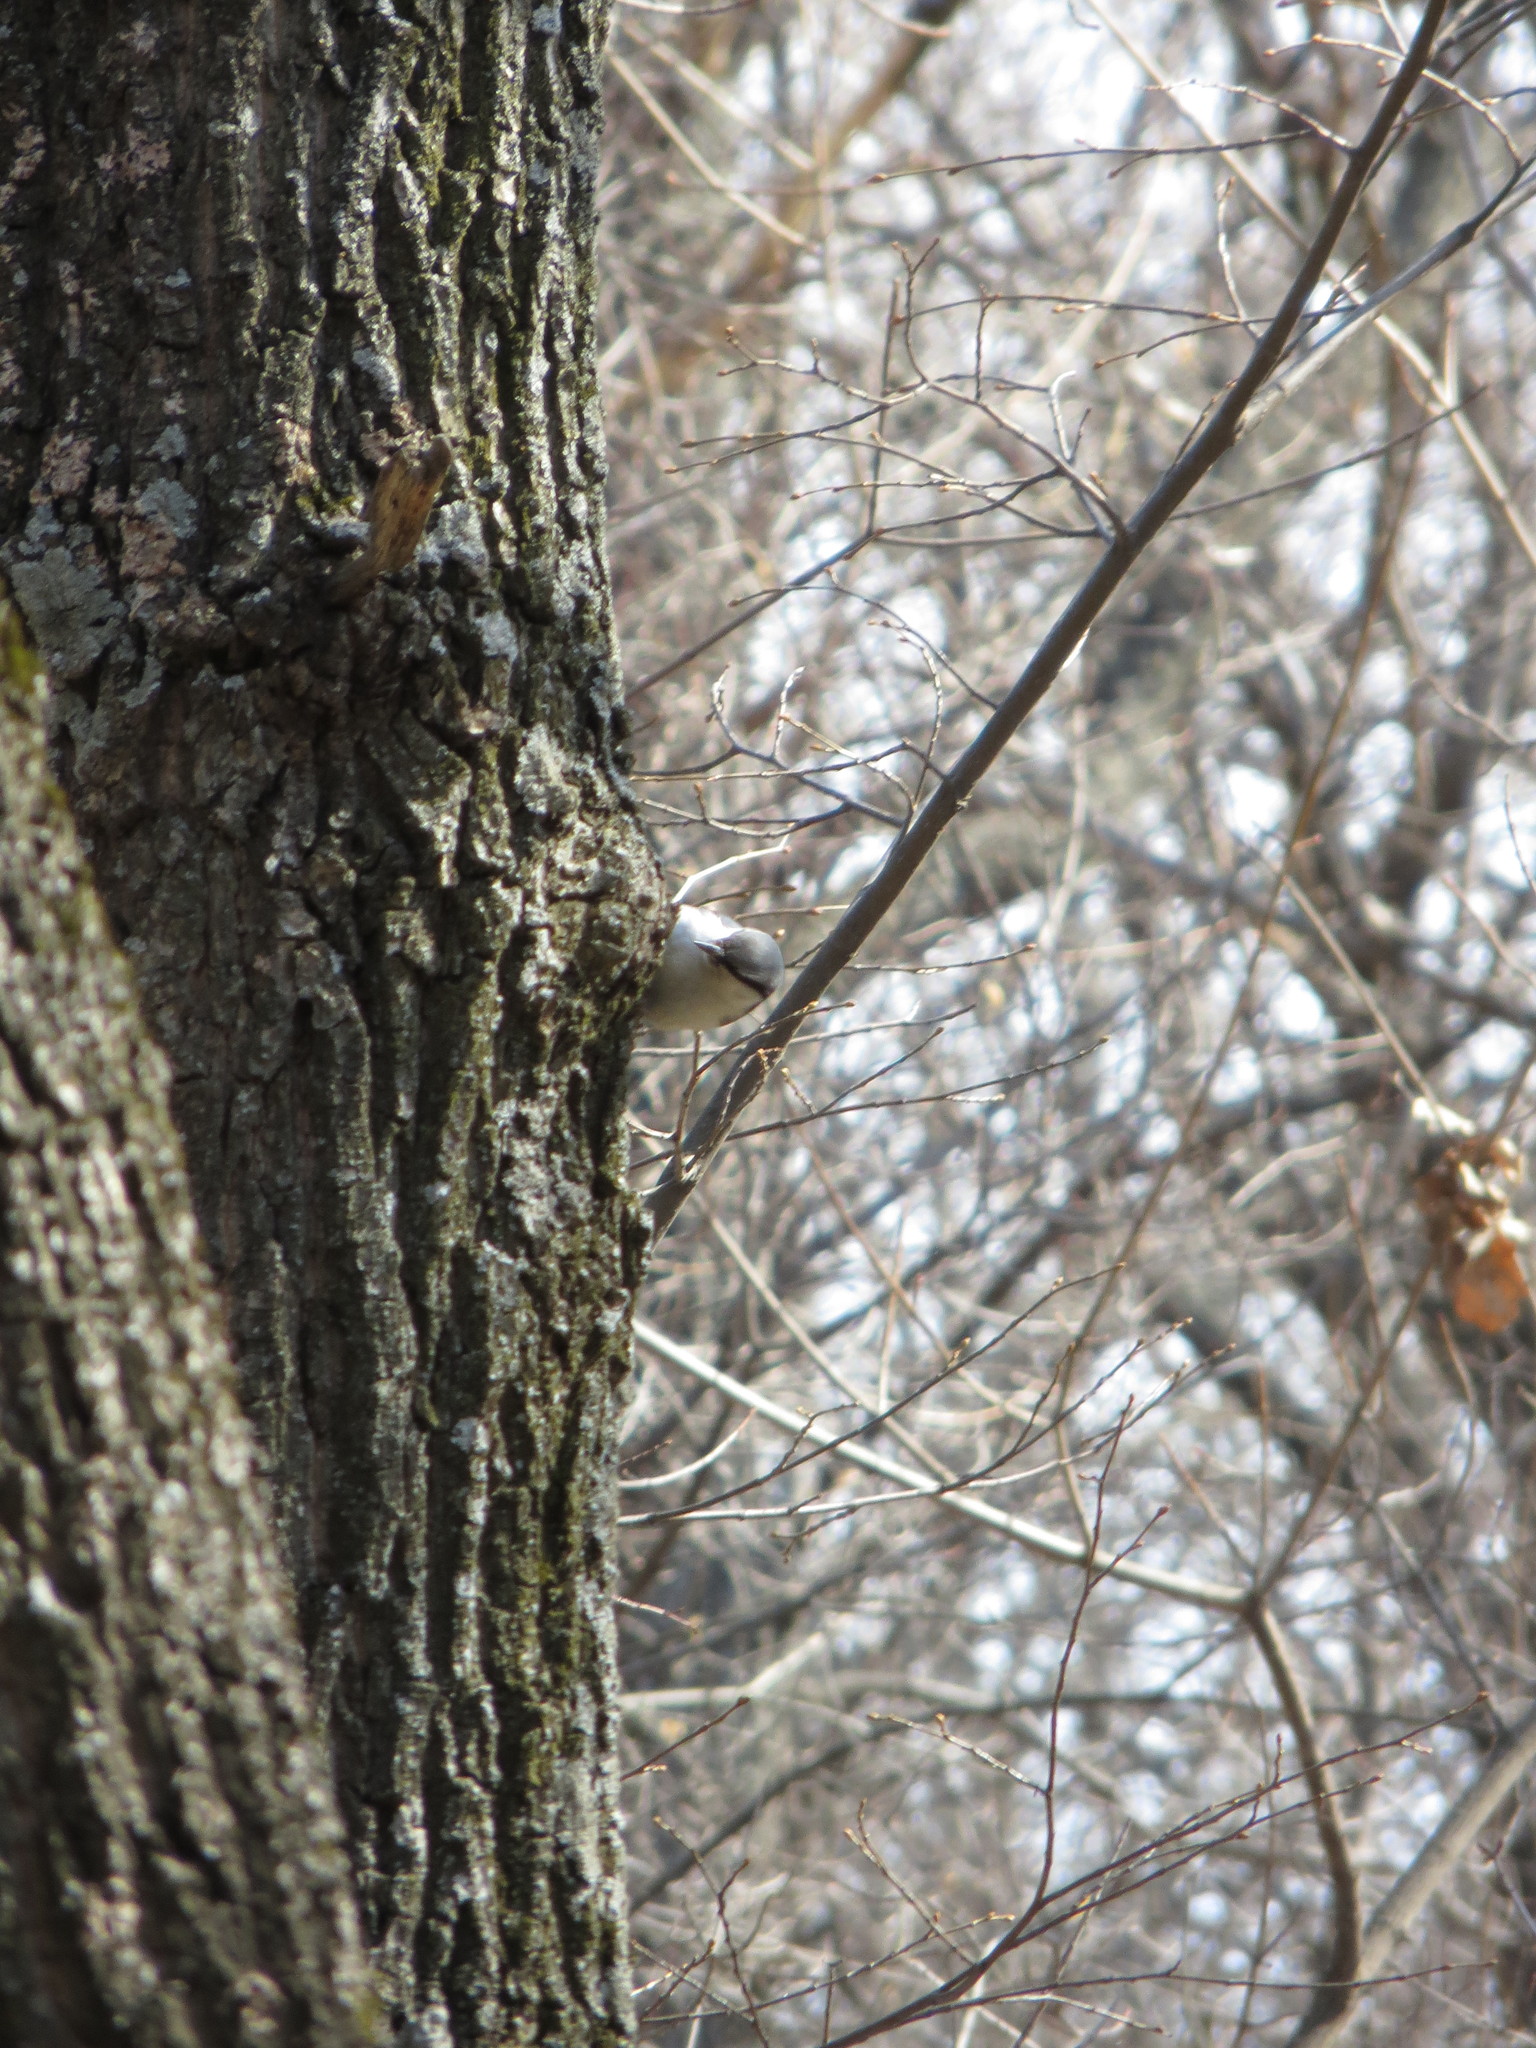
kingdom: Animalia
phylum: Chordata
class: Aves
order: Passeriformes
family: Sittidae
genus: Sitta
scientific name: Sitta europaea
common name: Eurasian nuthatch
